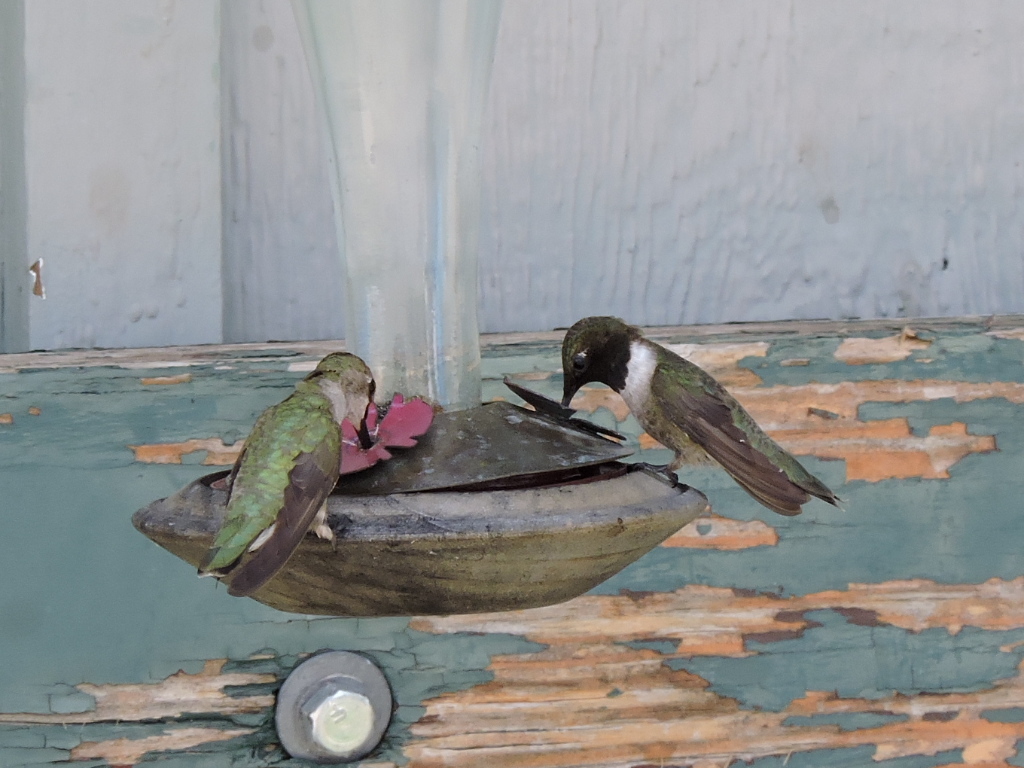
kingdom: Animalia
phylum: Chordata
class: Aves
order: Apodiformes
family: Trochilidae
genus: Archilochus
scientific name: Archilochus alexandri
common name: Black-chinned hummingbird
